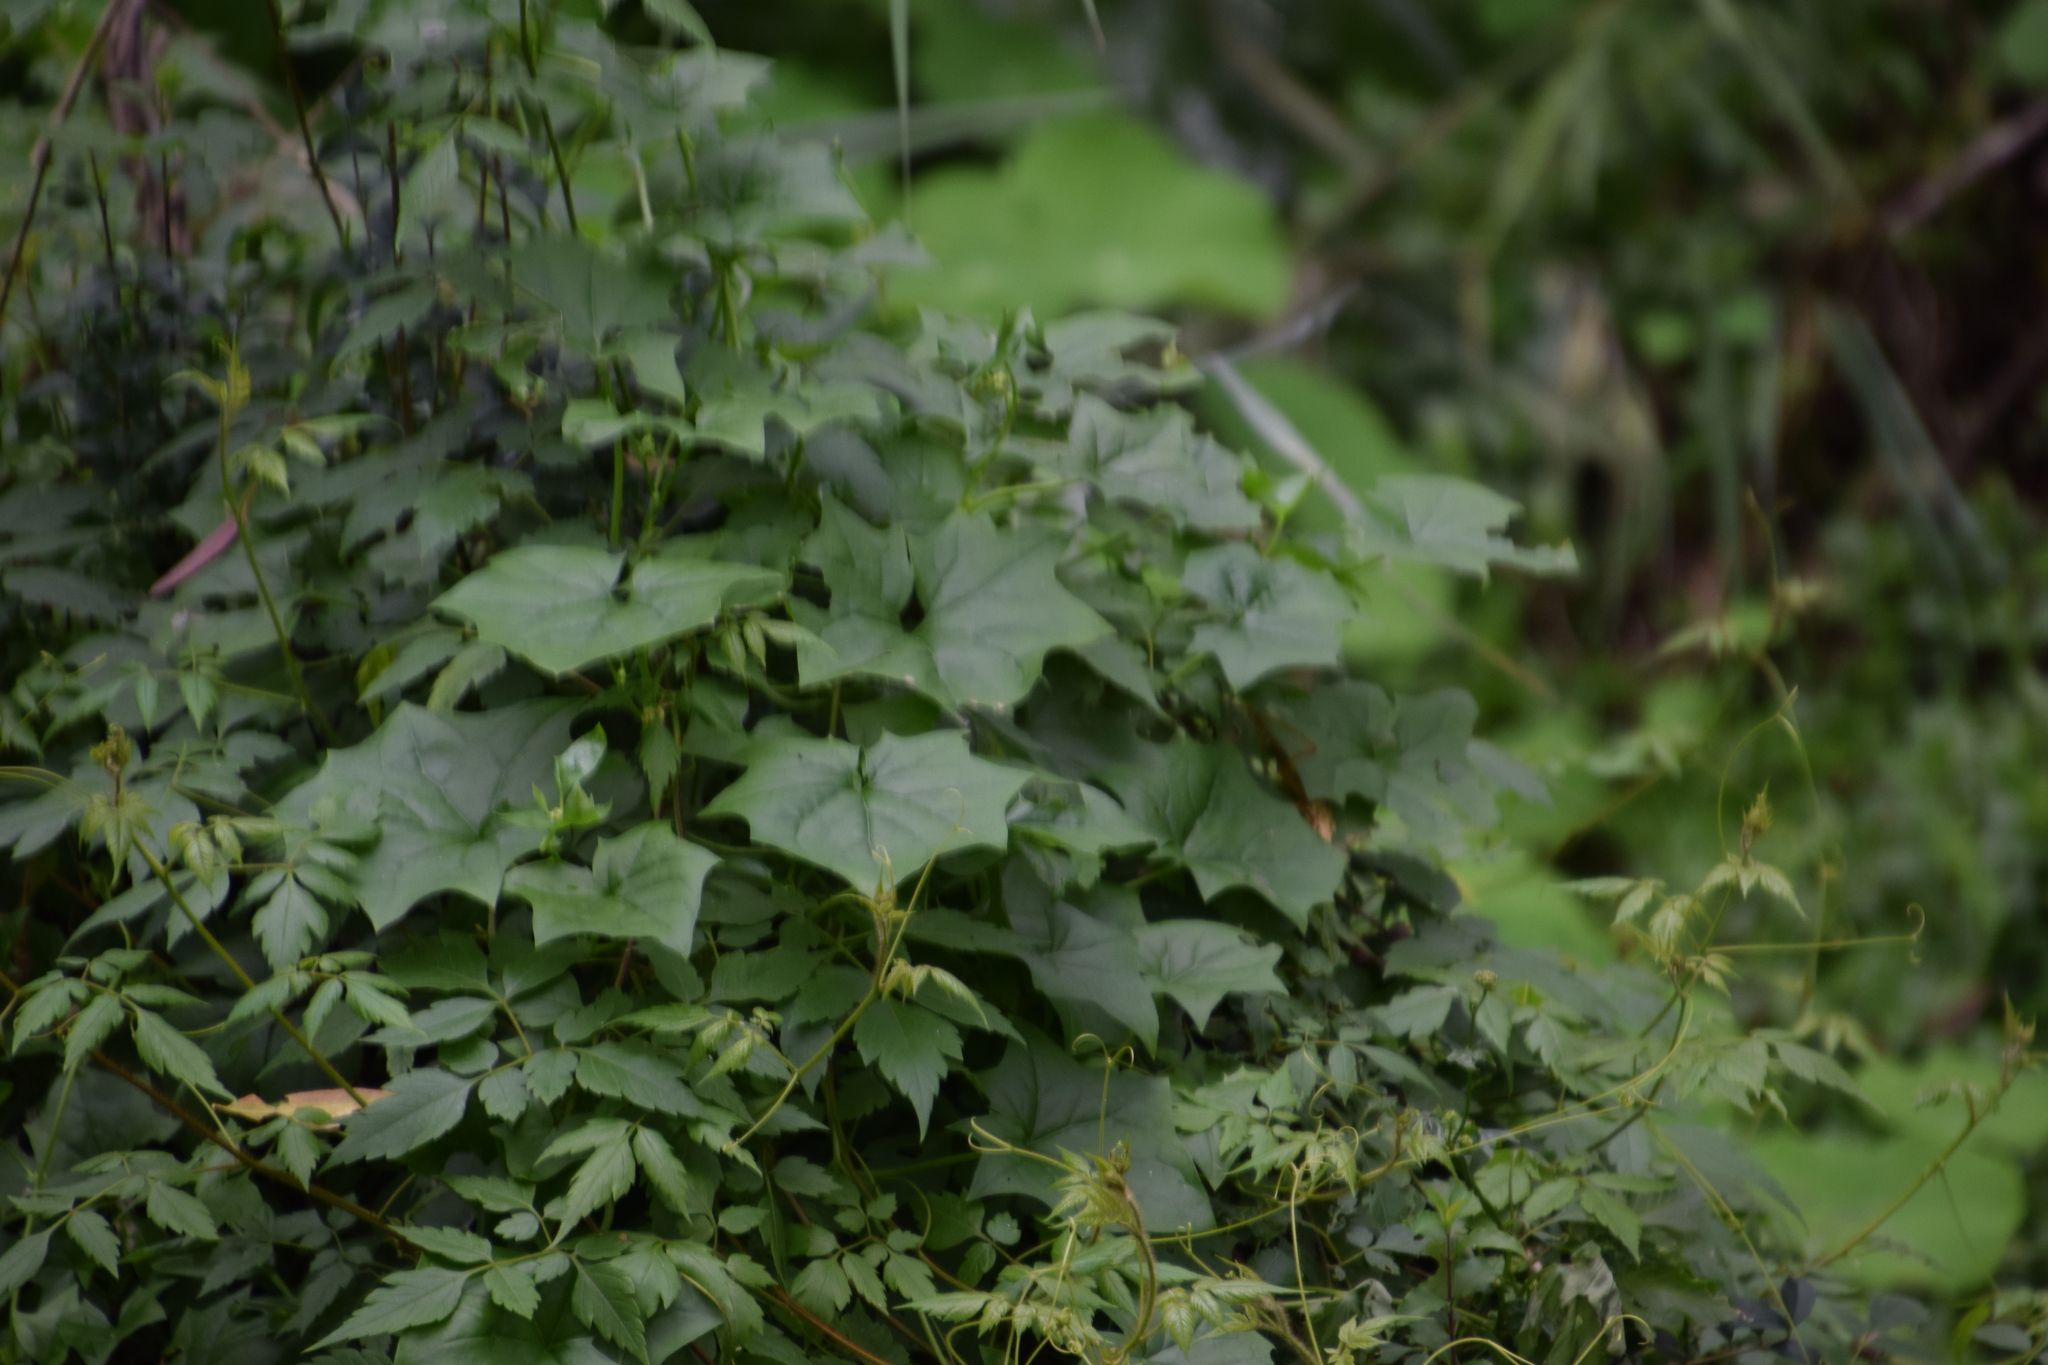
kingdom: Plantae
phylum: Tracheophyta
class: Magnoliopsida
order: Asterales
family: Asteraceae
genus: Delairea
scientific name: Delairea odorata
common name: Cape-ivy
